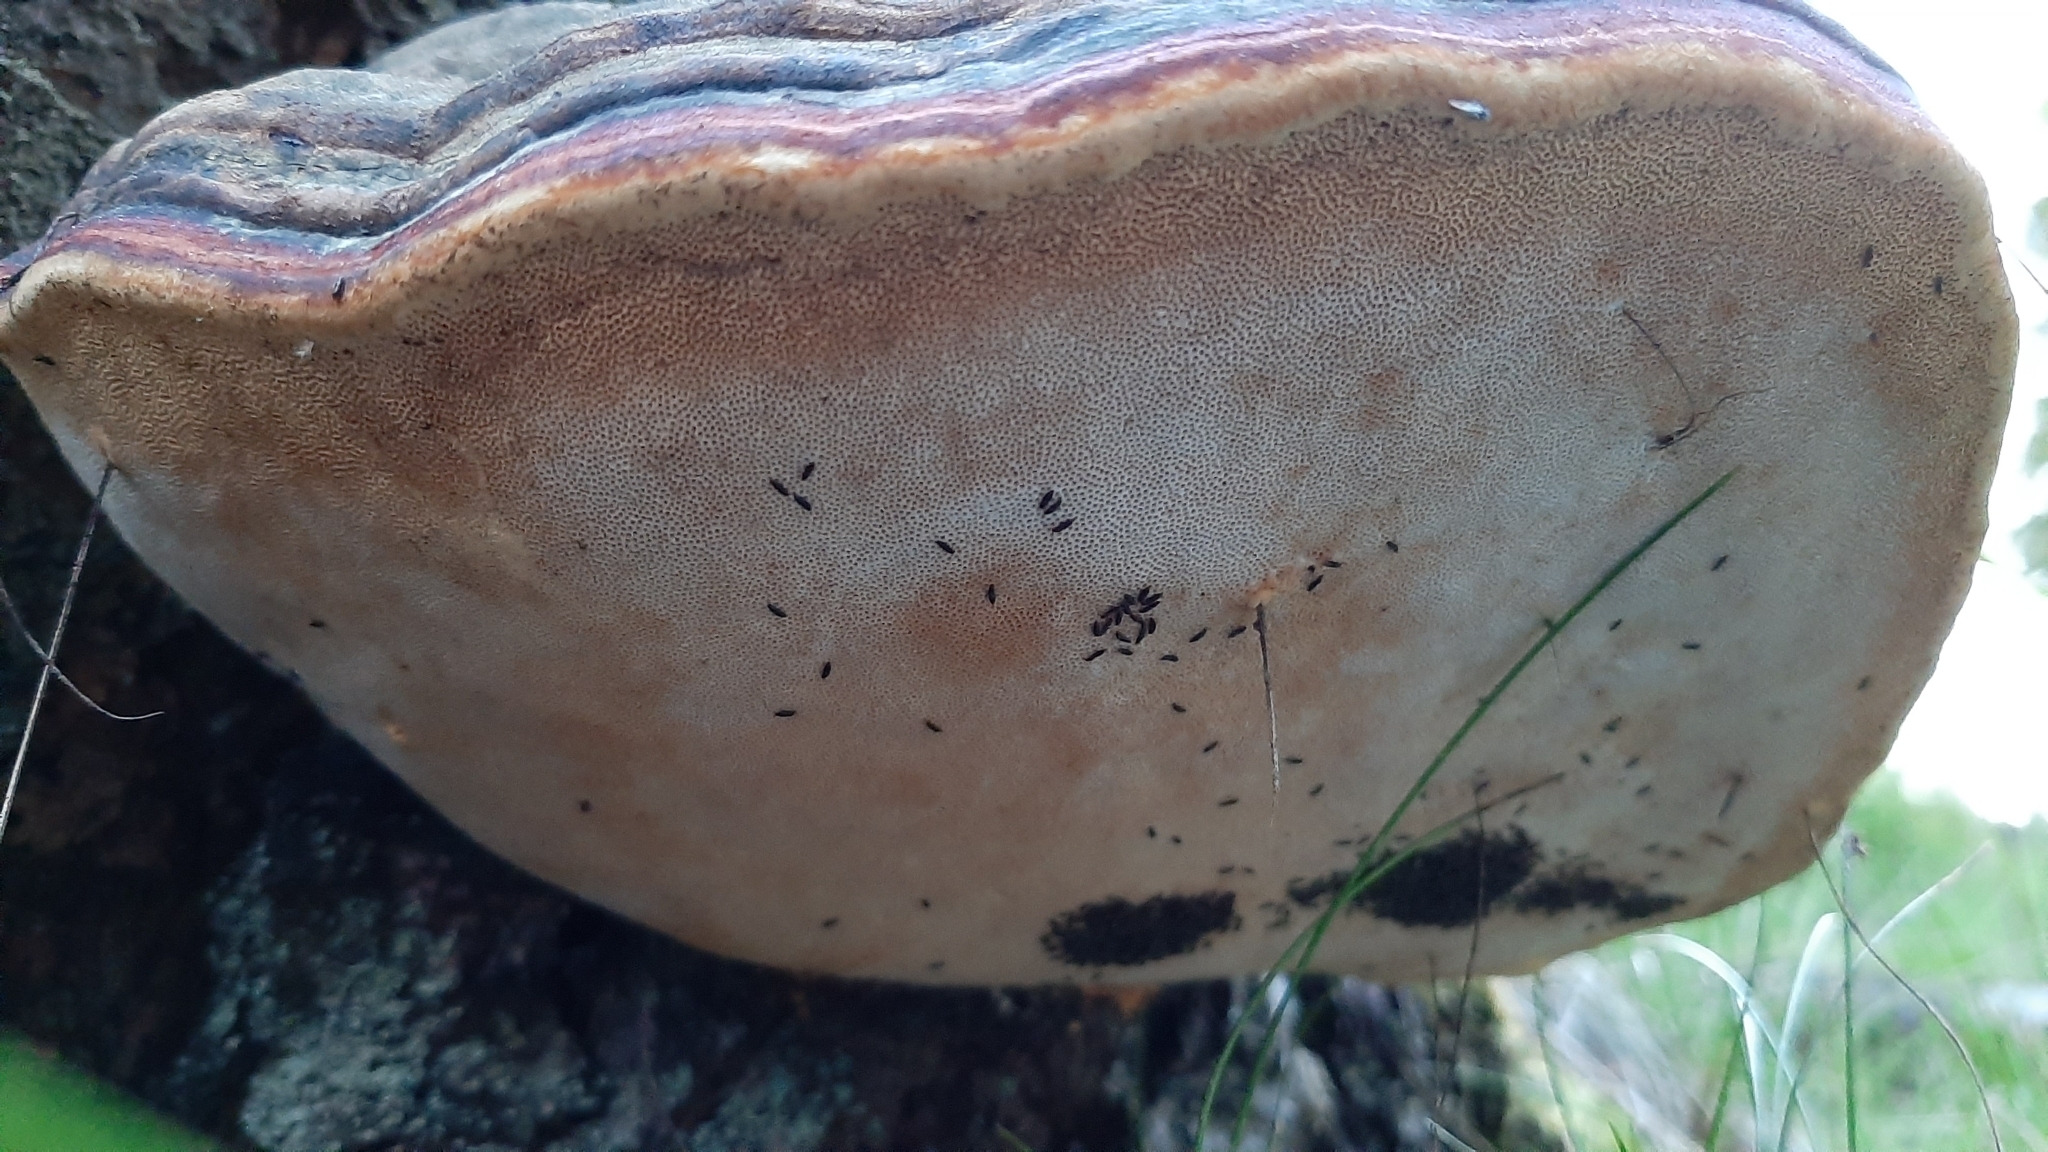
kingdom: Fungi
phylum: Basidiomycota
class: Agaricomycetes
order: Polyporales
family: Fomitopsidaceae
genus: Fomitopsis
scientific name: Fomitopsis pinicola
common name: Red-belted bracket
